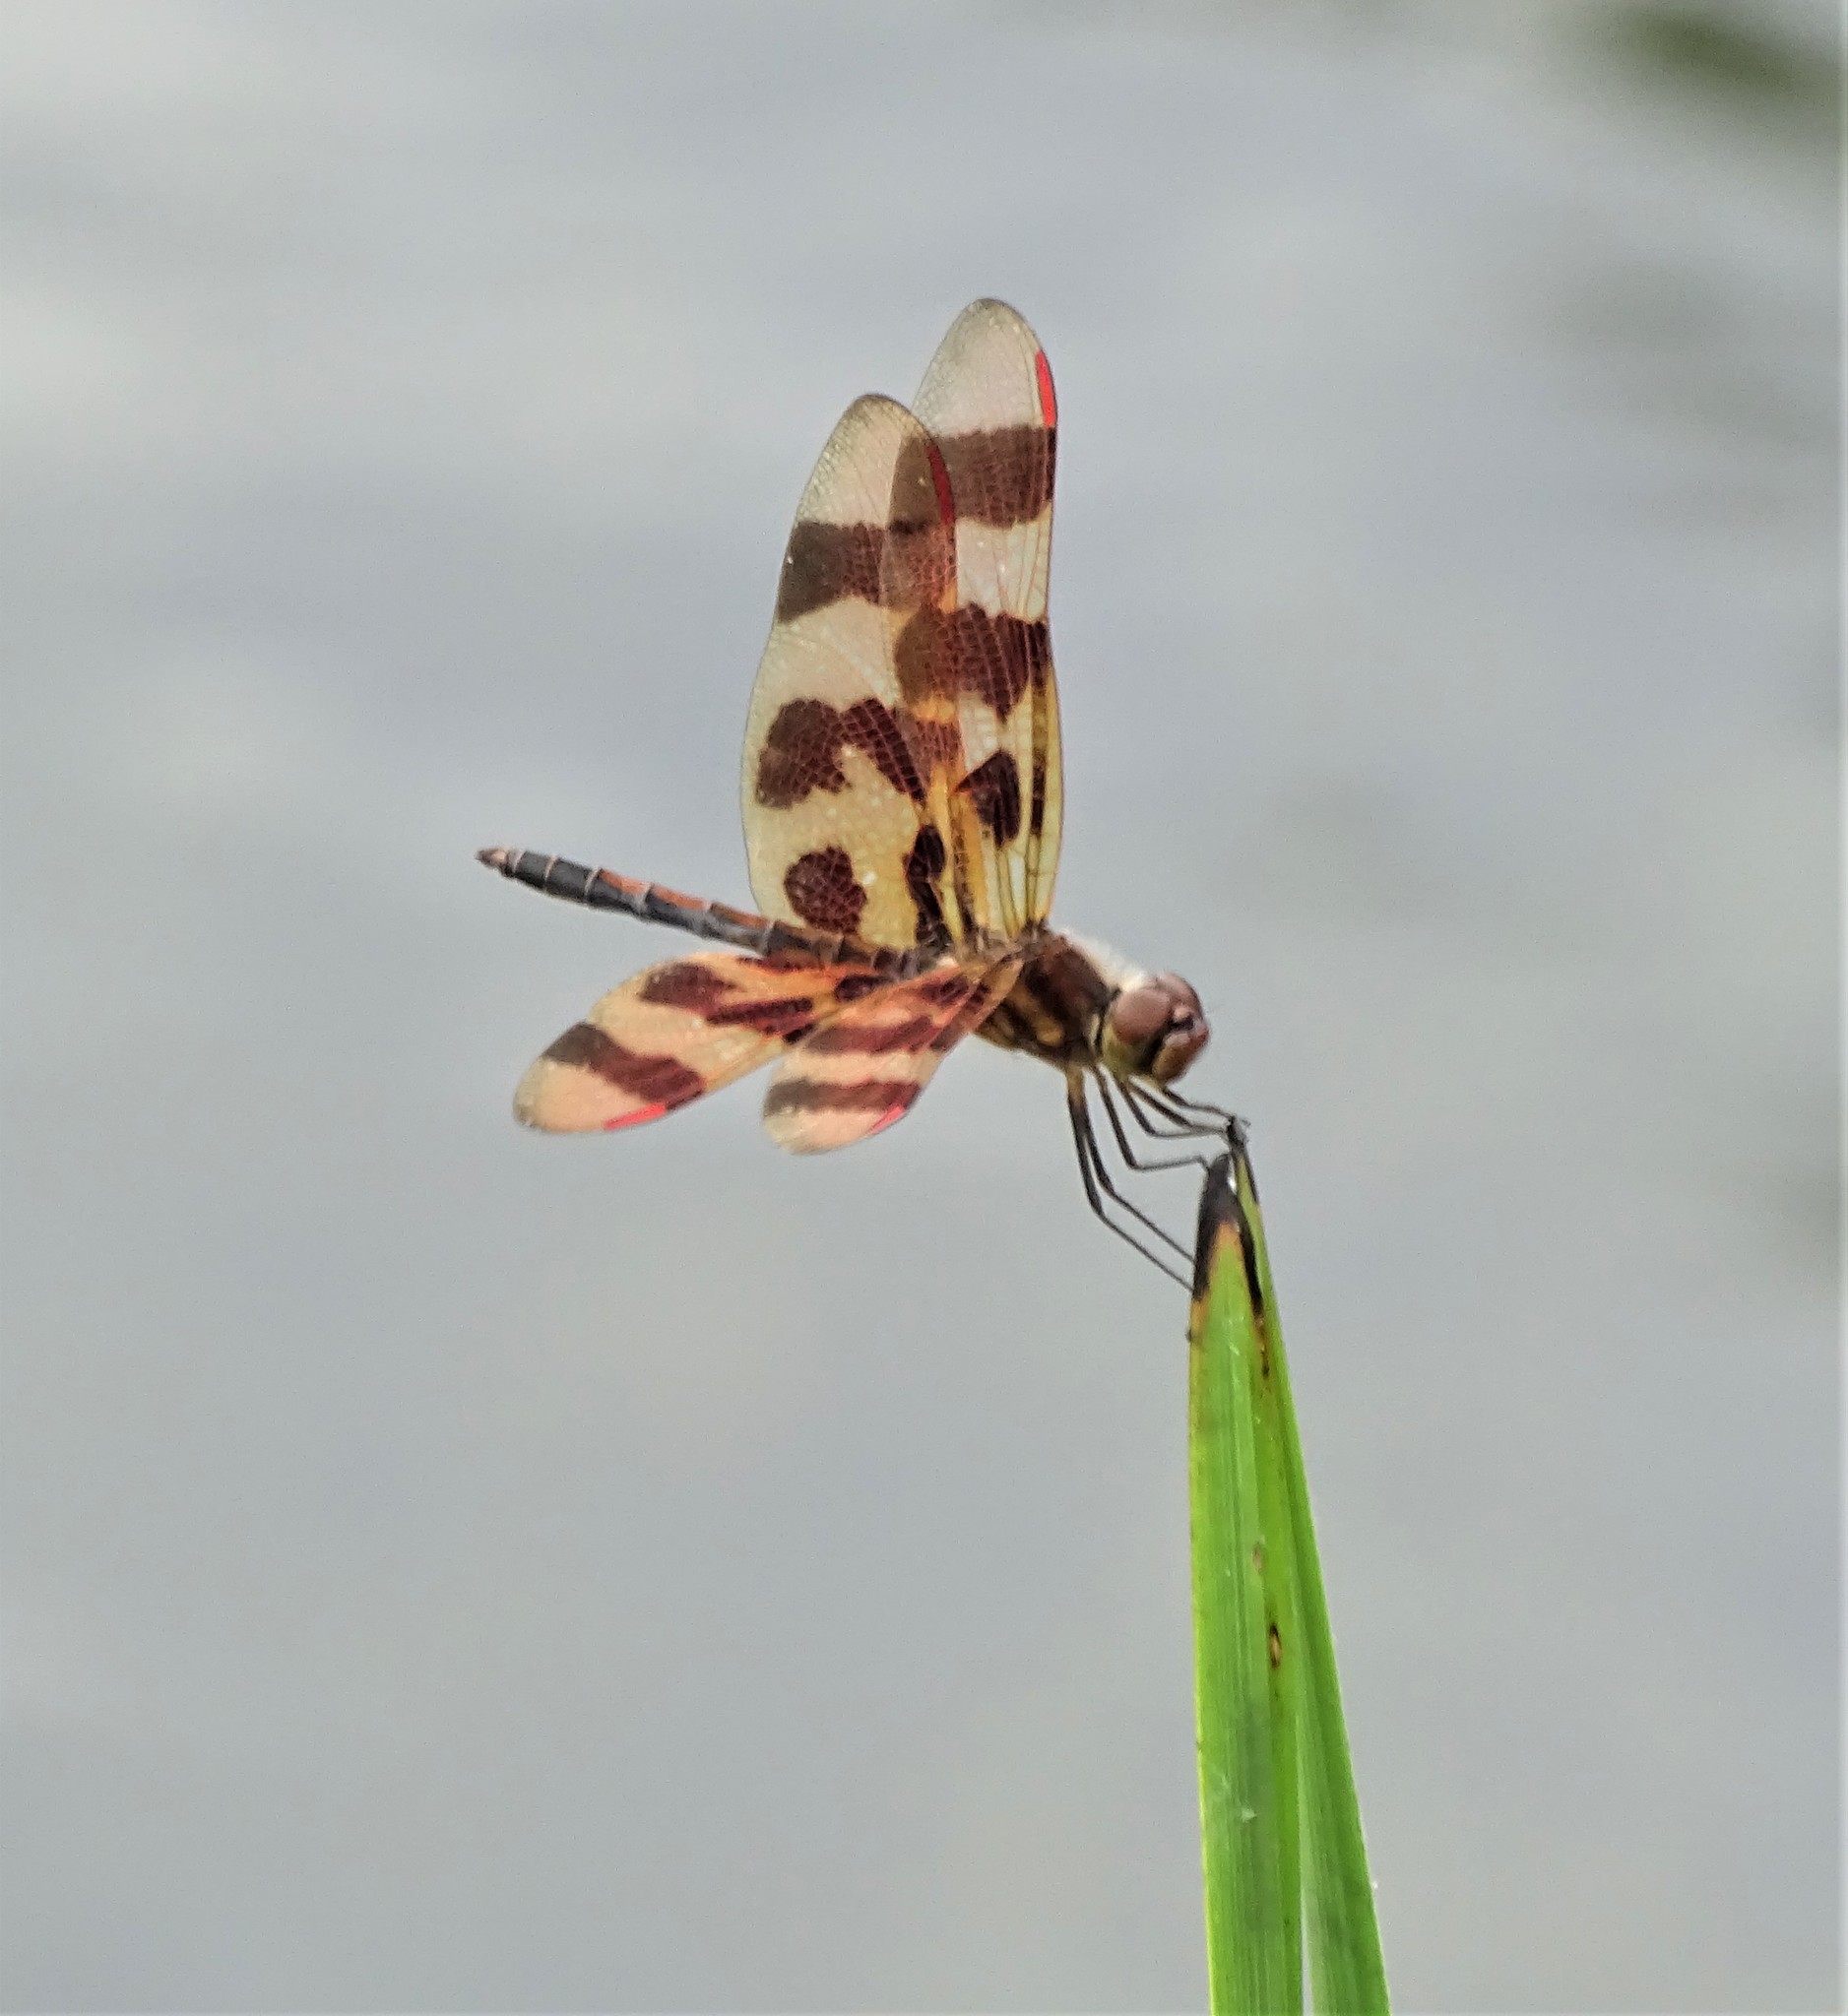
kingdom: Animalia
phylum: Arthropoda
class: Insecta
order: Odonata
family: Libellulidae
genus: Celithemis
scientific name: Celithemis eponina
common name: Halloween pennant
